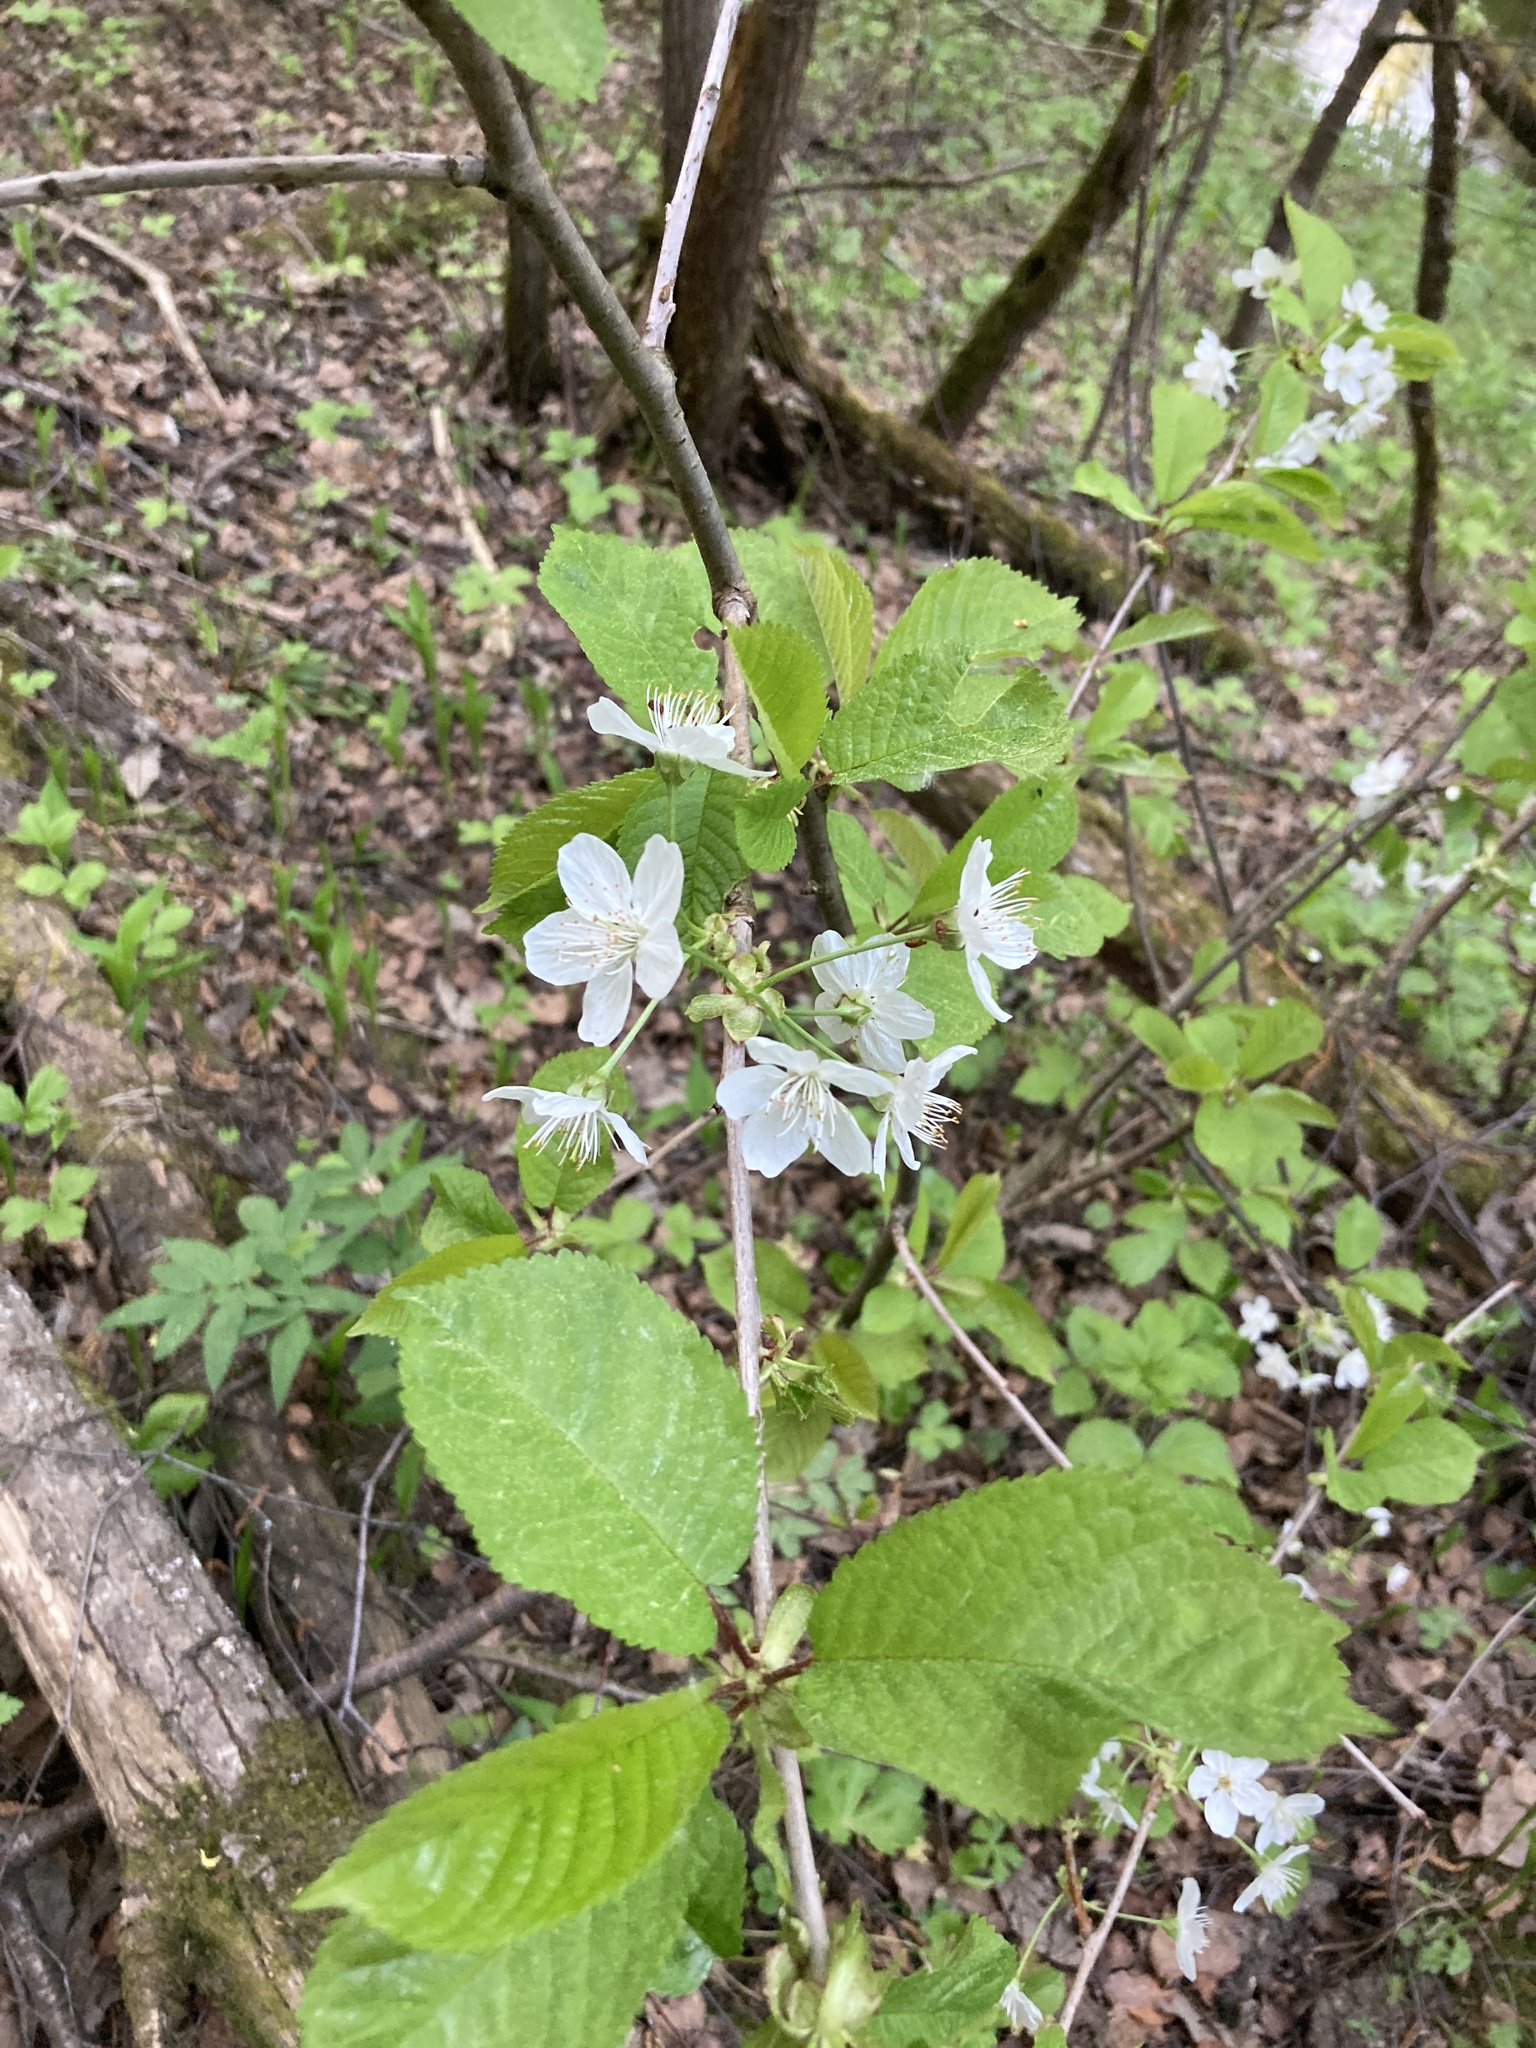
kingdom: Plantae
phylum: Tracheophyta
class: Magnoliopsida
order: Rosales
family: Rosaceae
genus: Prunus
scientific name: Prunus avium
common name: Sweet cherry
